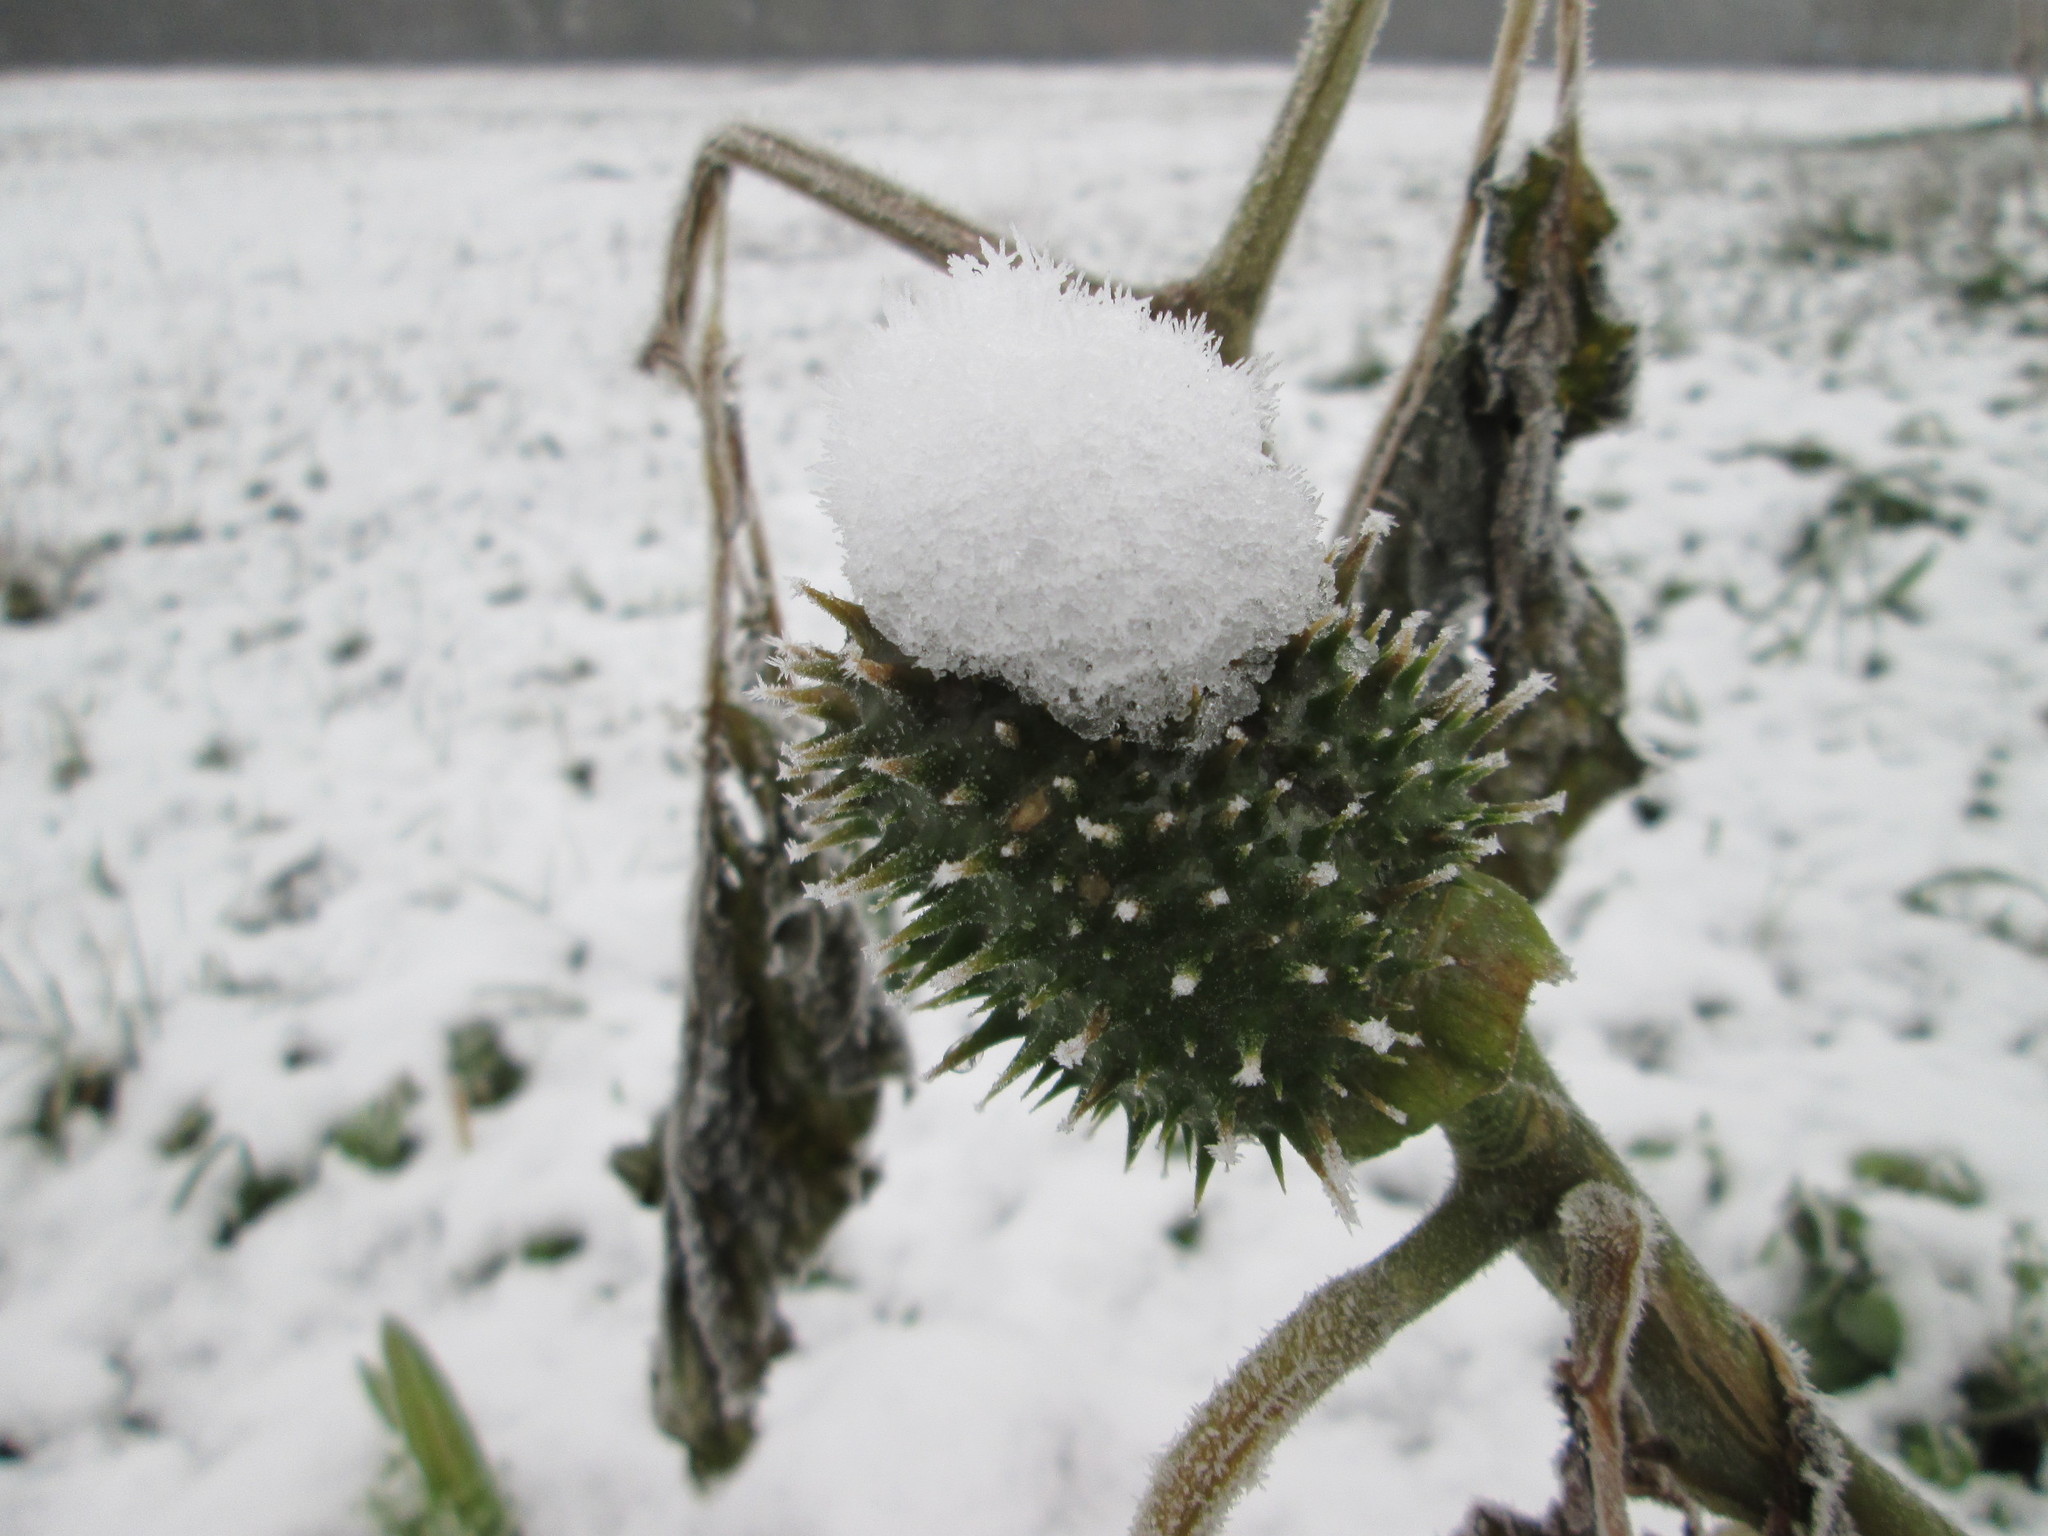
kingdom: Plantae
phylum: Tracheophyta
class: Magnoliopsida
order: Solanales
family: Solanaceae
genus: Datura
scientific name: Datura stramonium
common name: Thorn-apple
